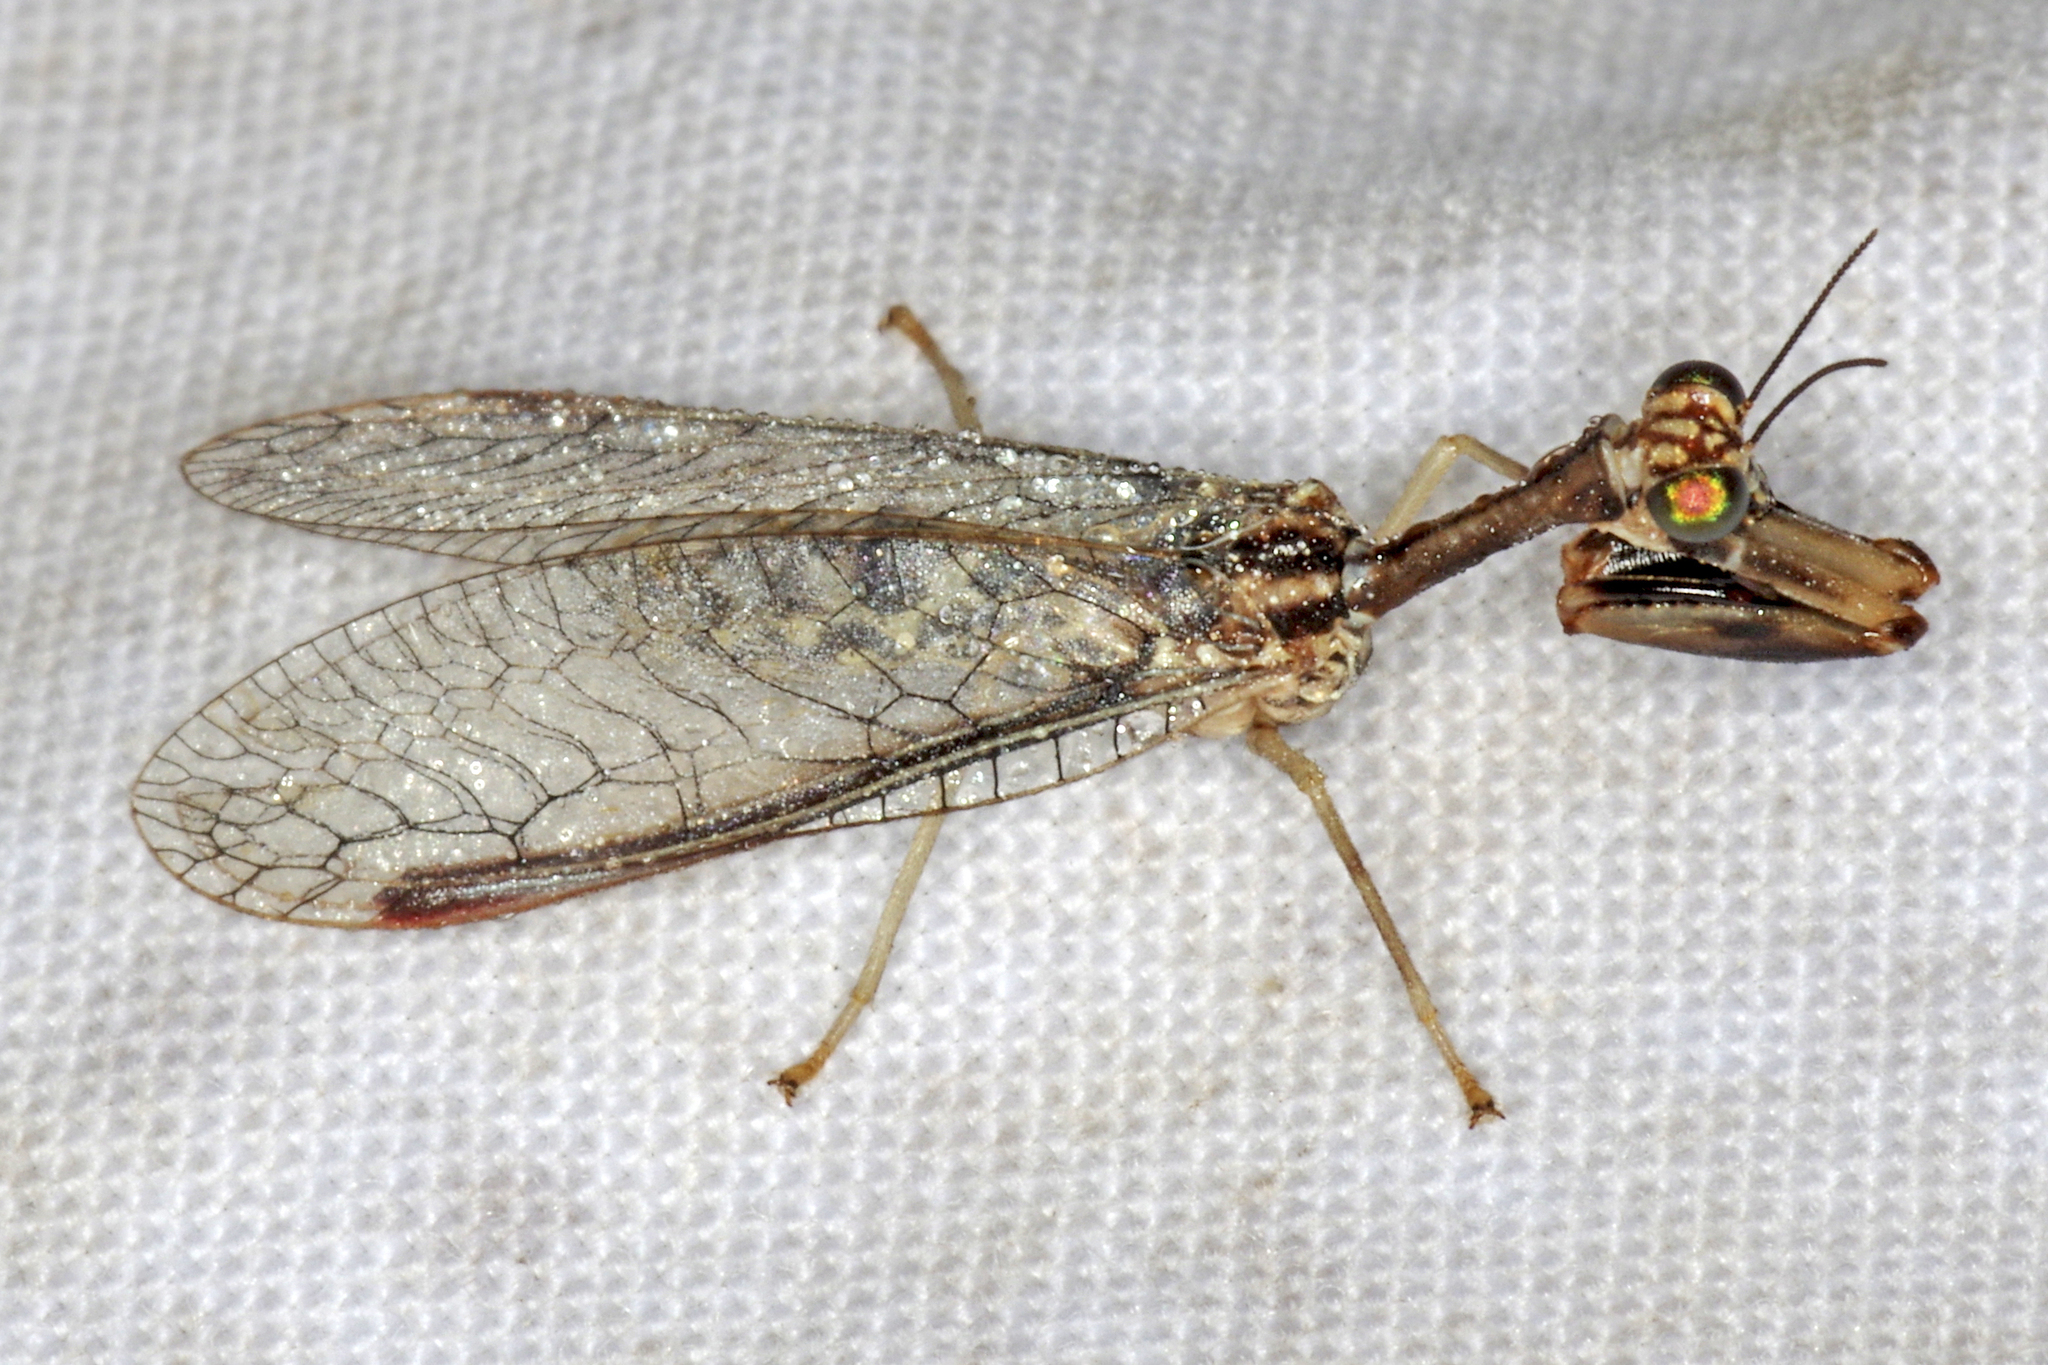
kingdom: Animalia
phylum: Arthropoda
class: Insecta
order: Neuroptera
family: Mantispidae
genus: Dicromantispa
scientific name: Dicromantispa sayi
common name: Say's mantidfly
